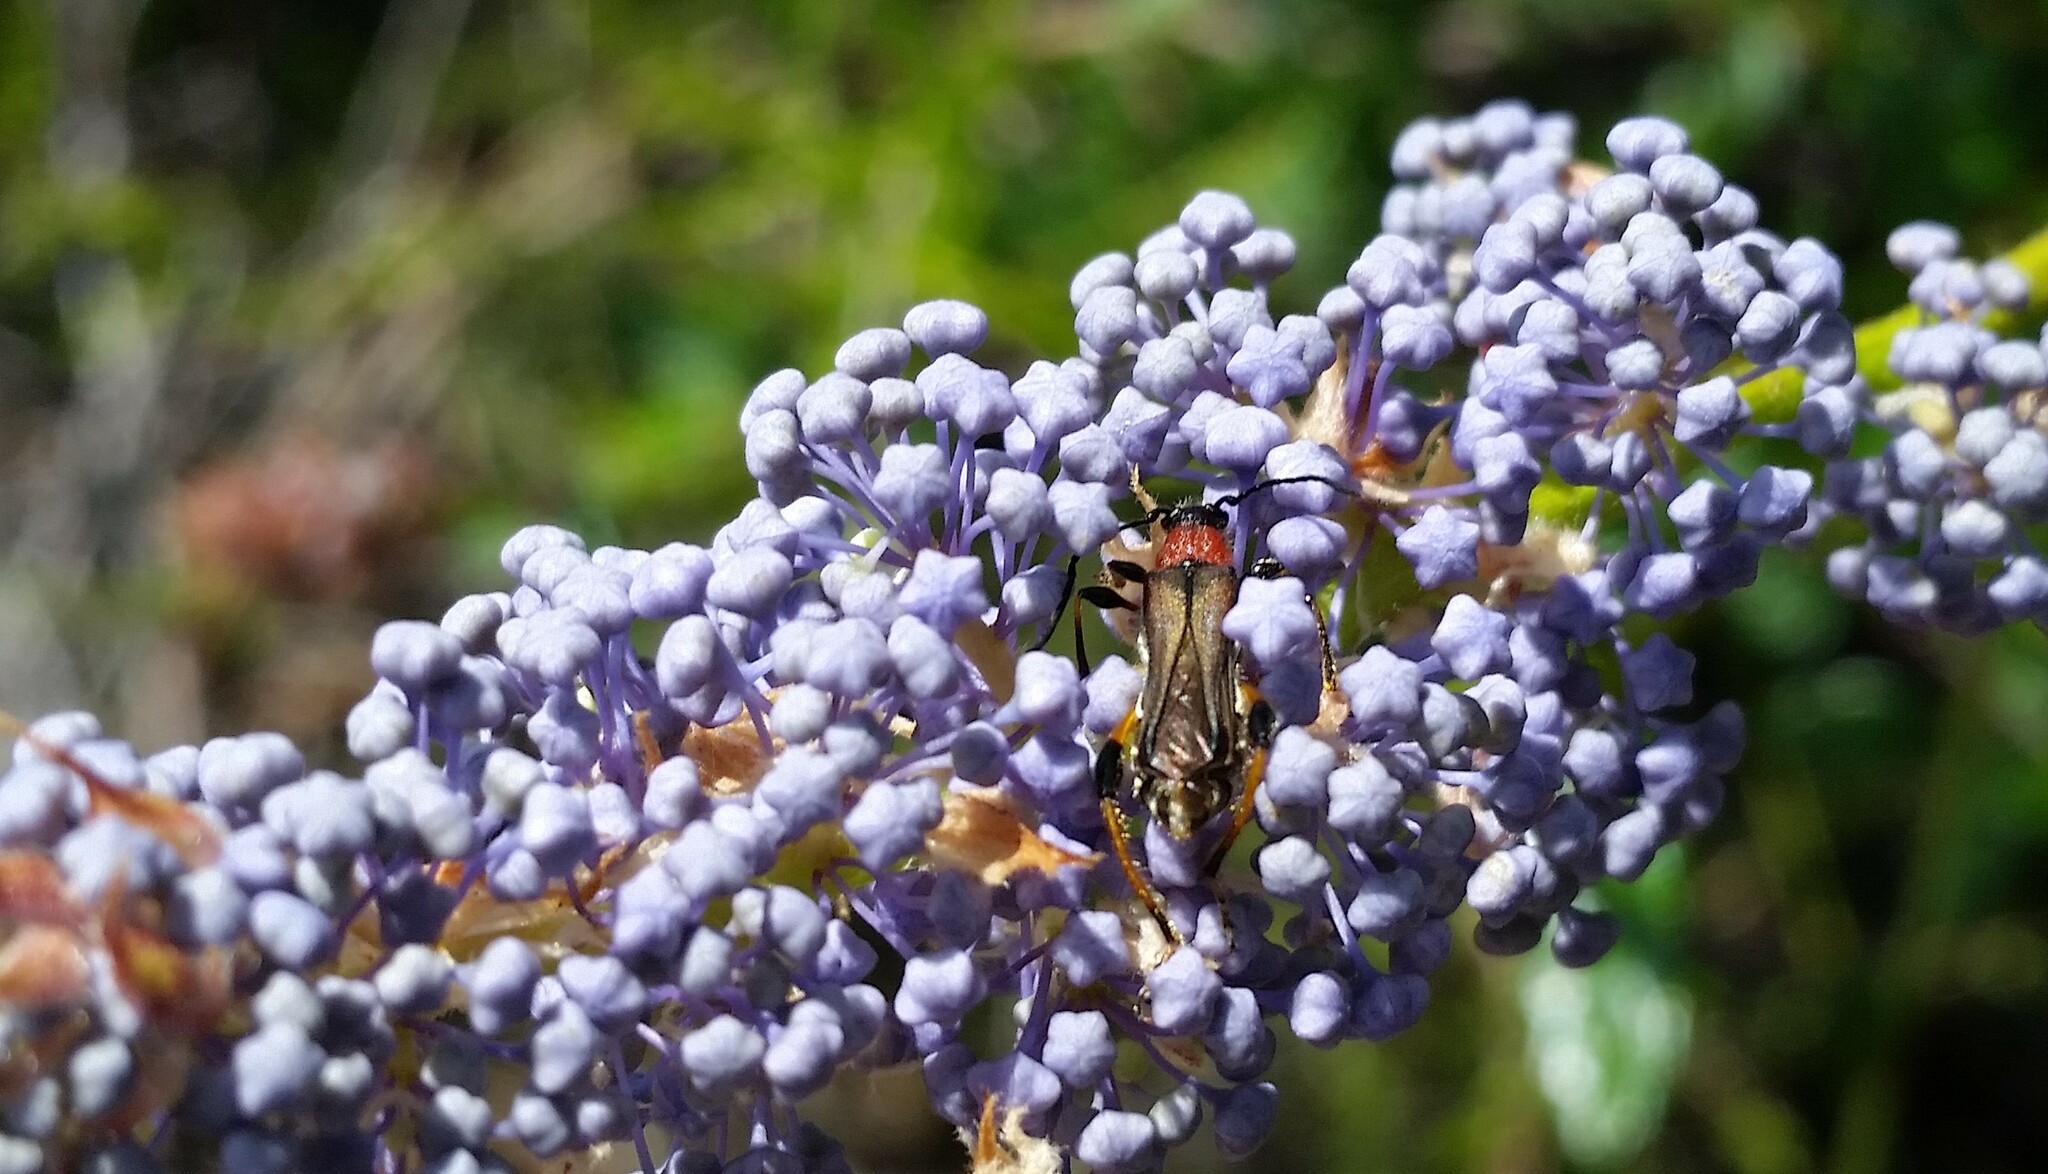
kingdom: Animalia
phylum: Arthropoda
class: Insecta
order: Coleoptera
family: Cerambycidae
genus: Callimoxys
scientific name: Callimoxys fuscipennis
